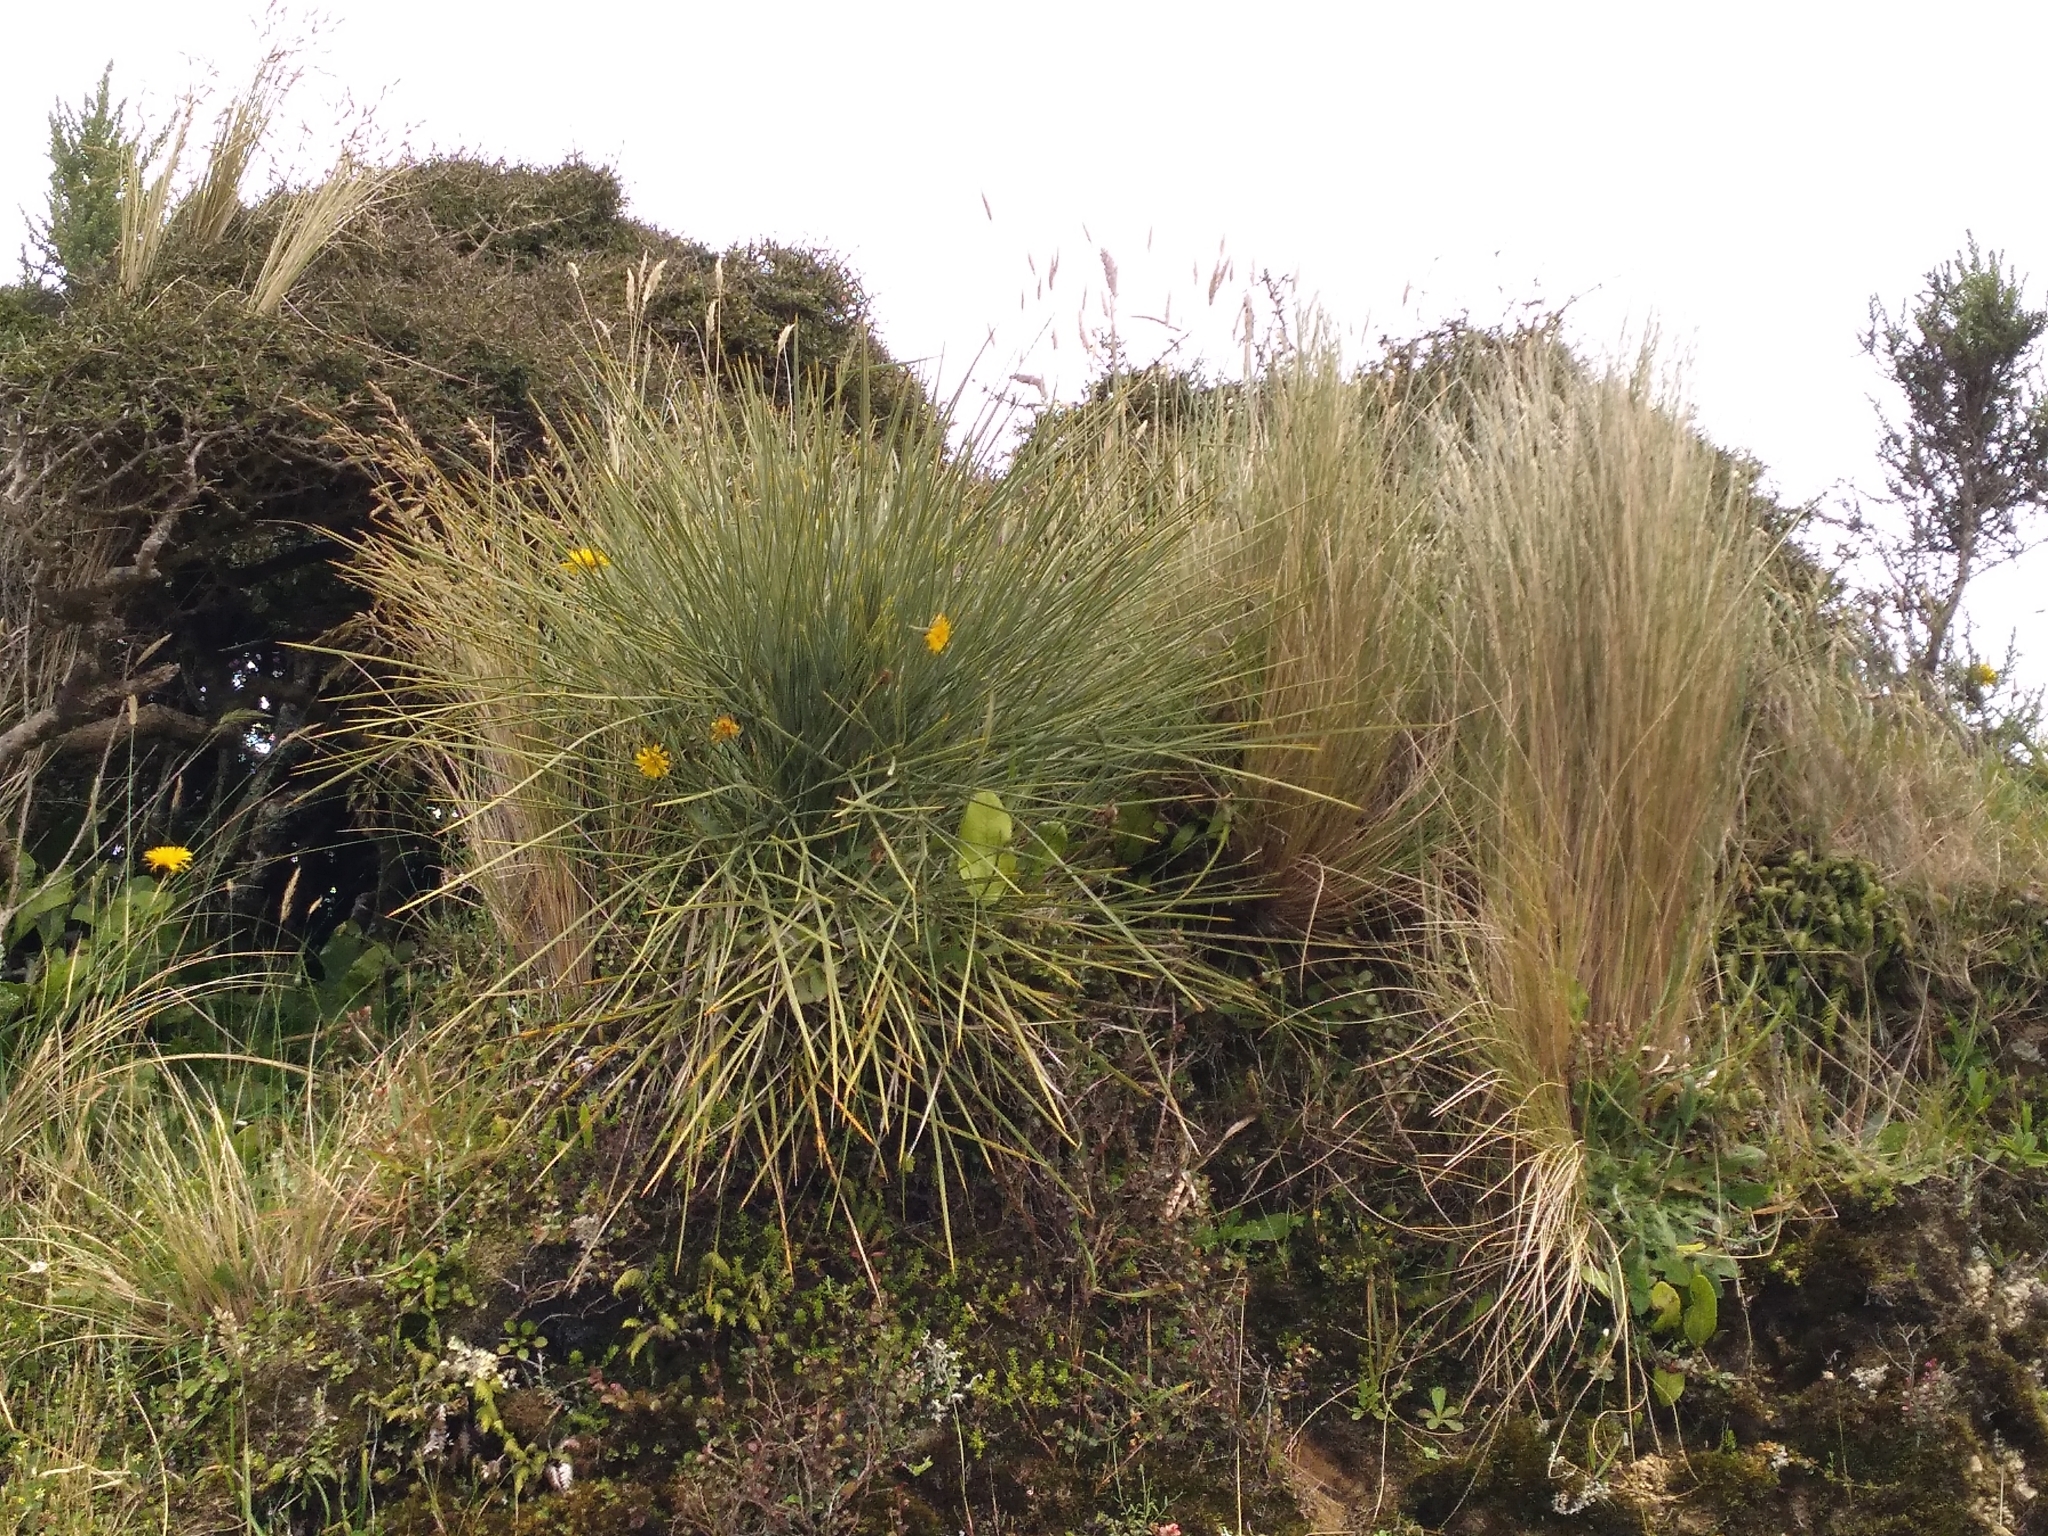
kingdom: Plantae
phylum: Tracheophyta
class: Magnoliopsida
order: Apiales
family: Apiaceae
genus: Aciphylla
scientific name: Aciphylla squarrosa
